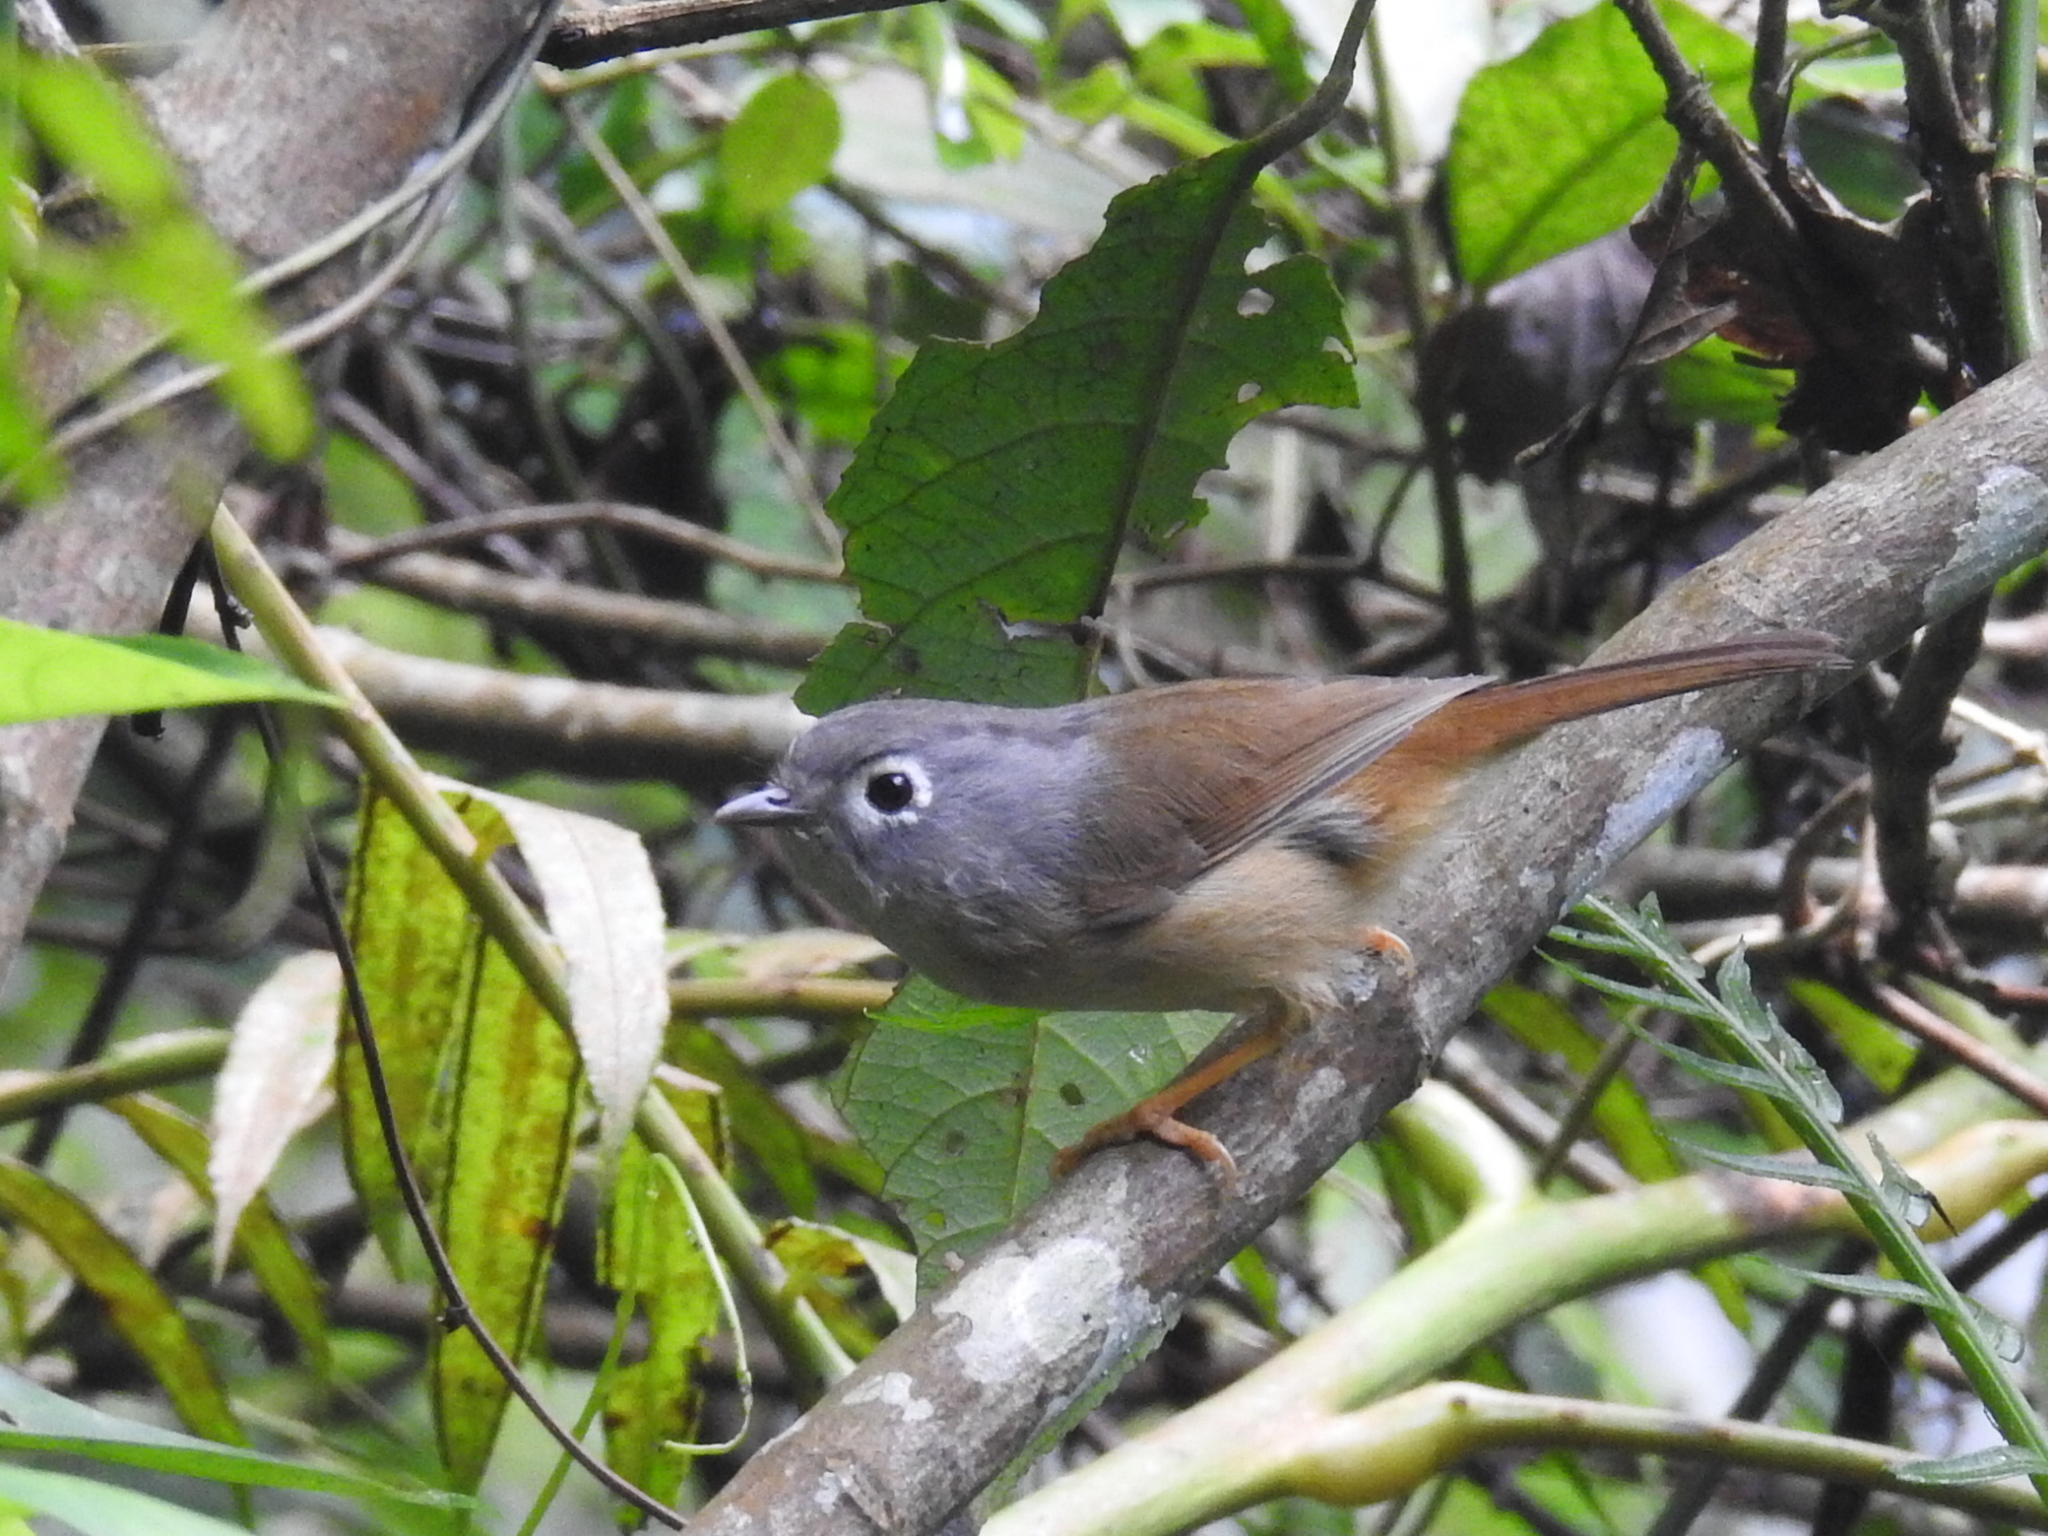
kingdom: Animalia
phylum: Chordata
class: Aves
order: Passeriformes
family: Pellorneidae
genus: Alcippe
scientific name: Alcippe morrisonia
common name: Grey-cheeked fulvetta
